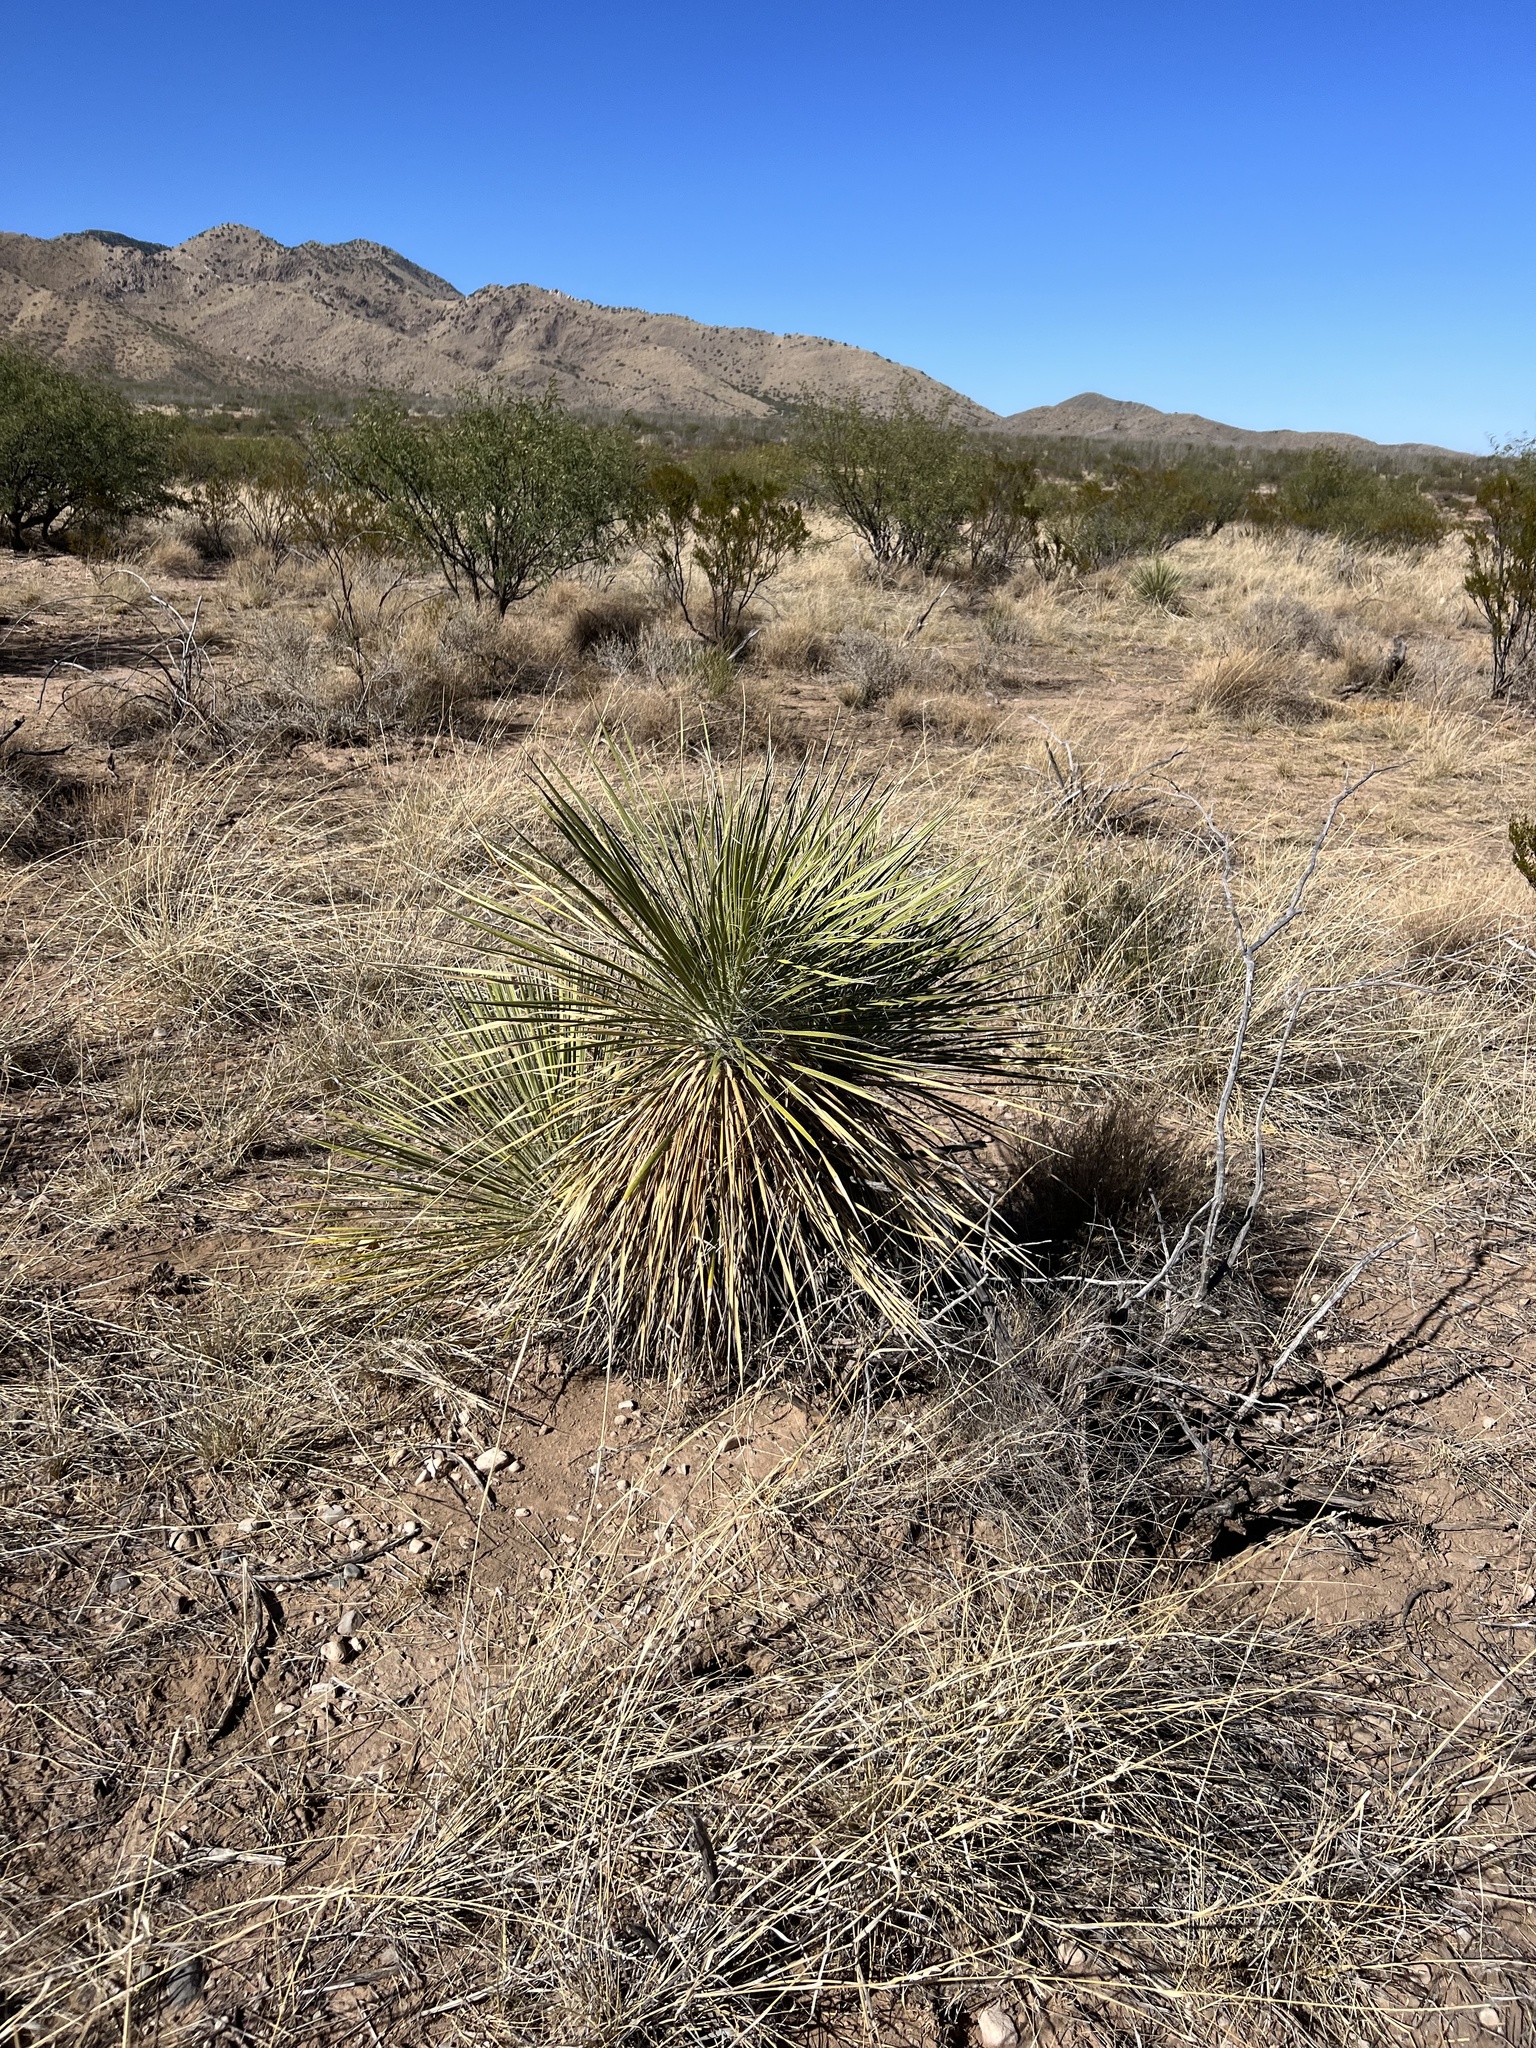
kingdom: Plantae
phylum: Tracheophyta
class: Liliopsida
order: Asparagales
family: Asparagaceae
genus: Yucca
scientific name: Yucca elata
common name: Palmella
